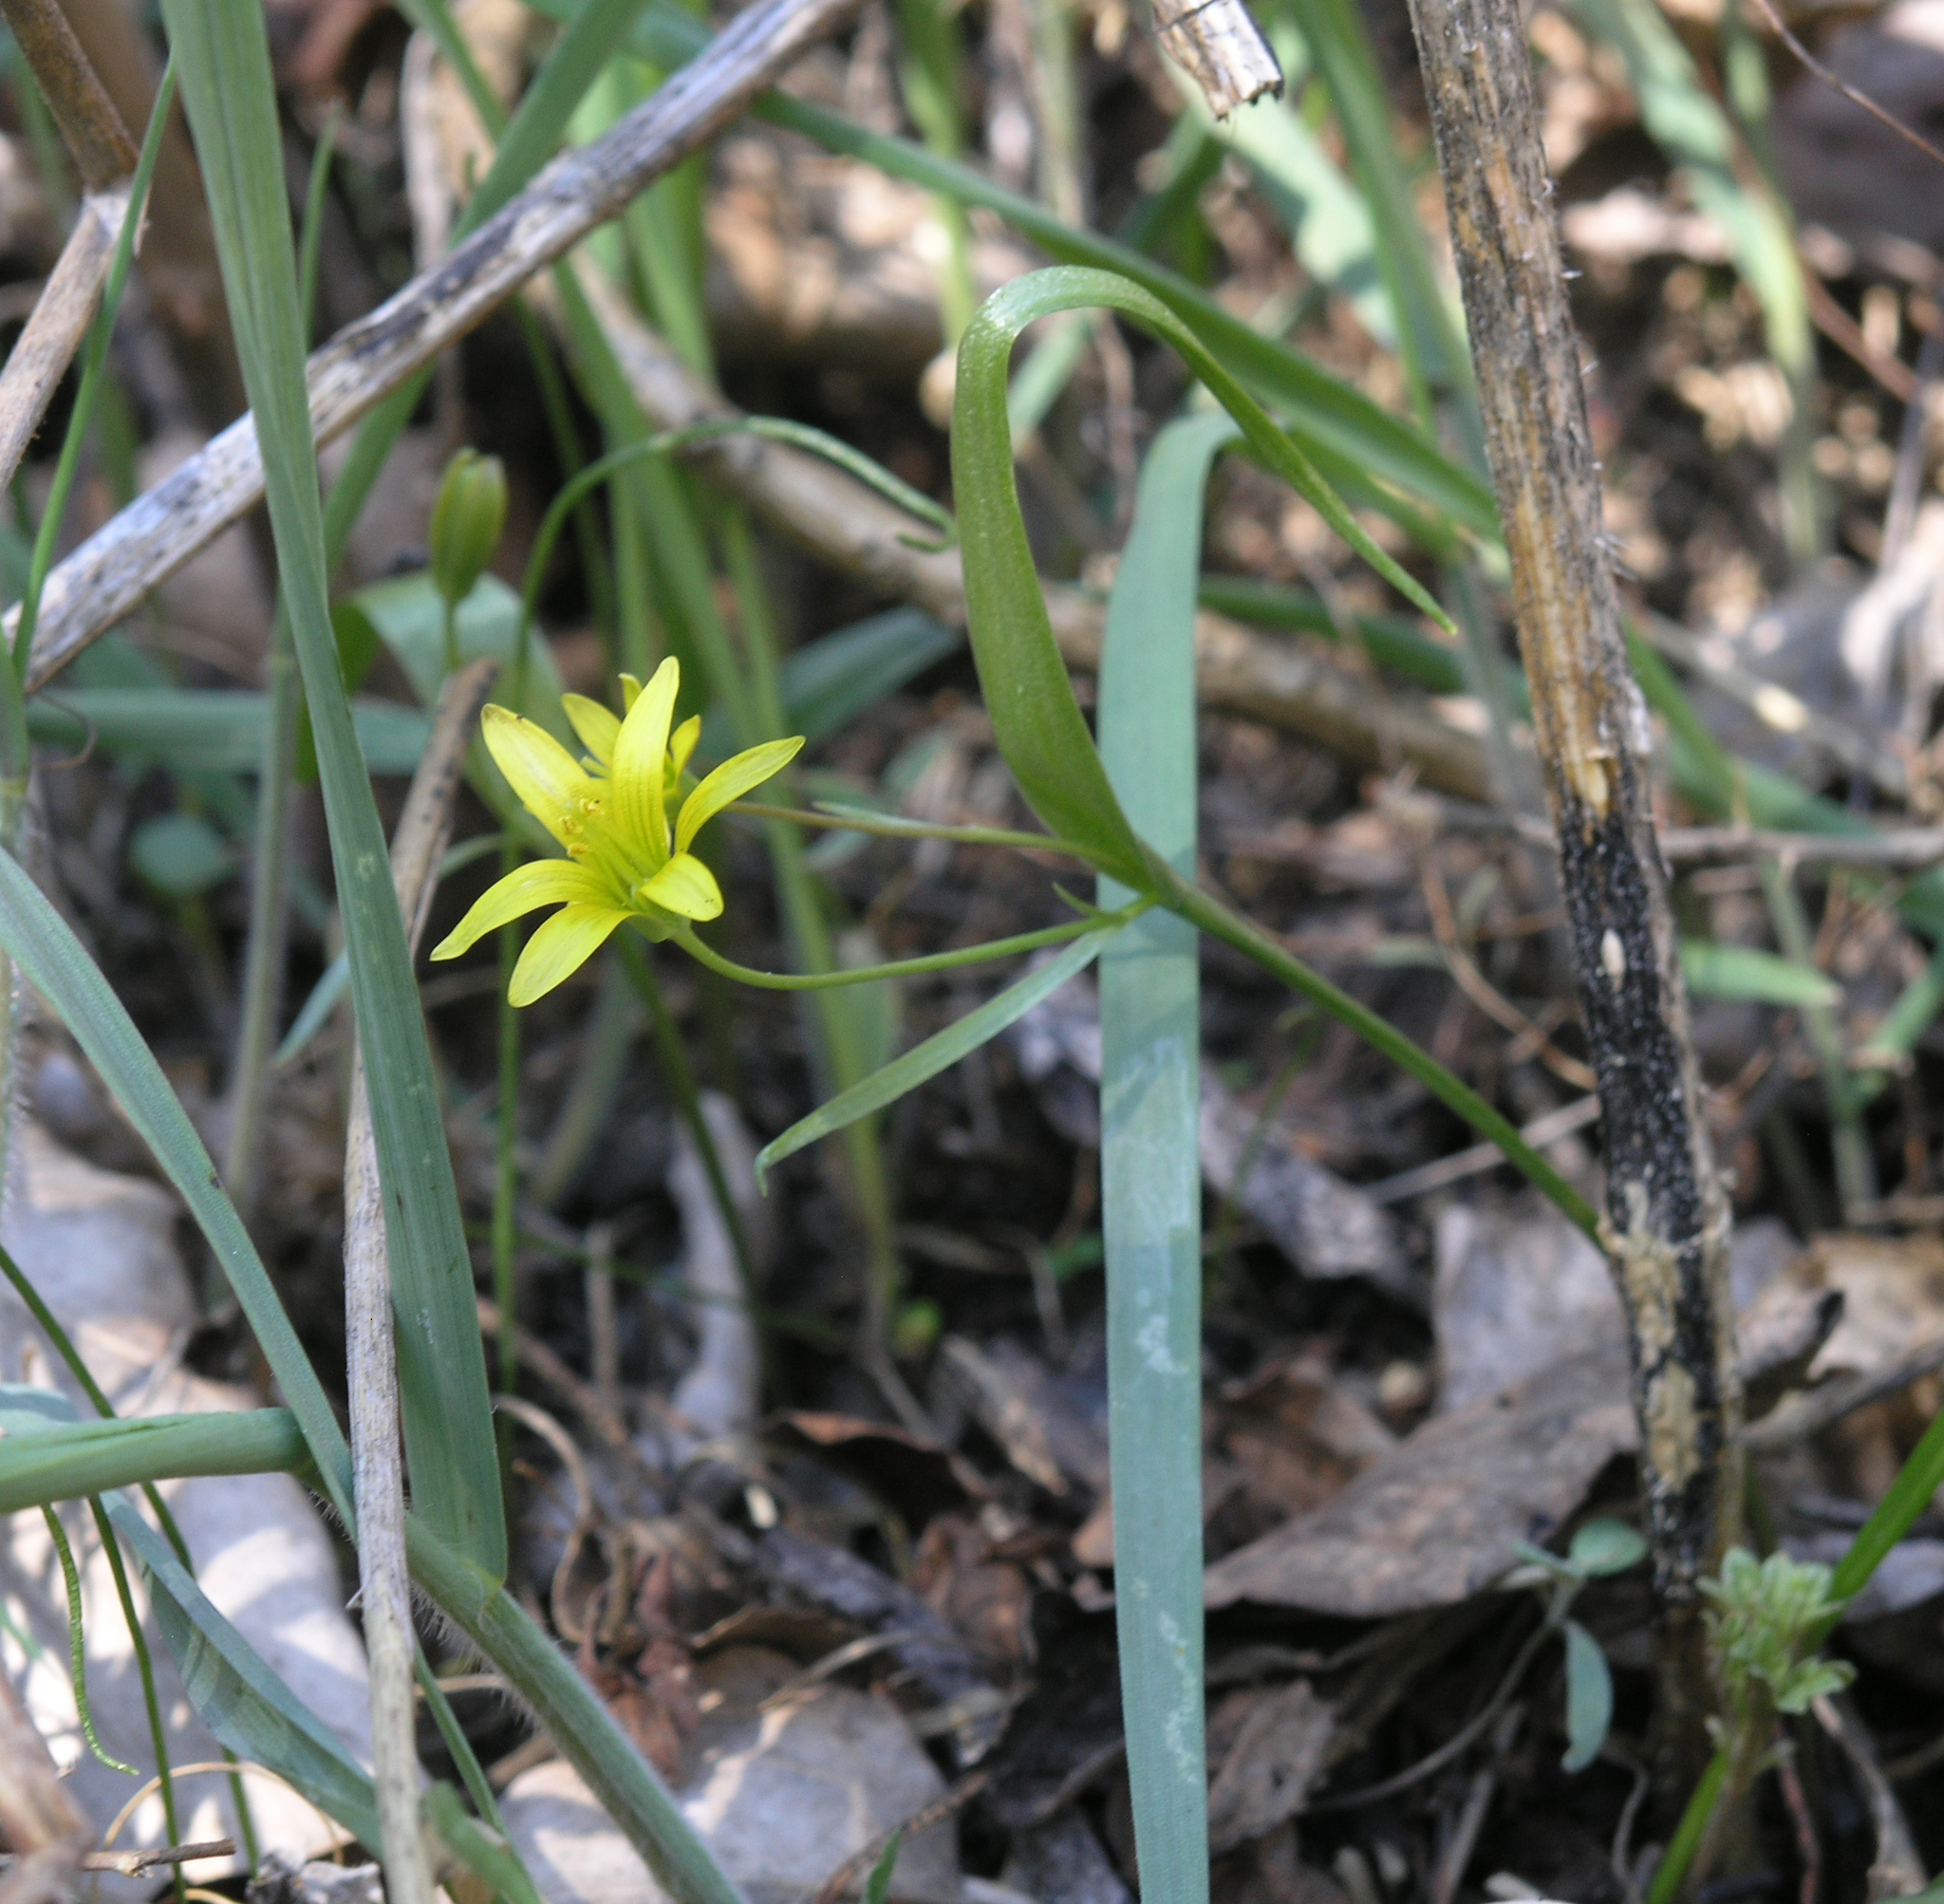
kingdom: Plantae
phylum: Tracheophyta
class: Liliopsida
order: Liliales
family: Liliaceae
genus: Gagea
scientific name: Gagea granulosa
